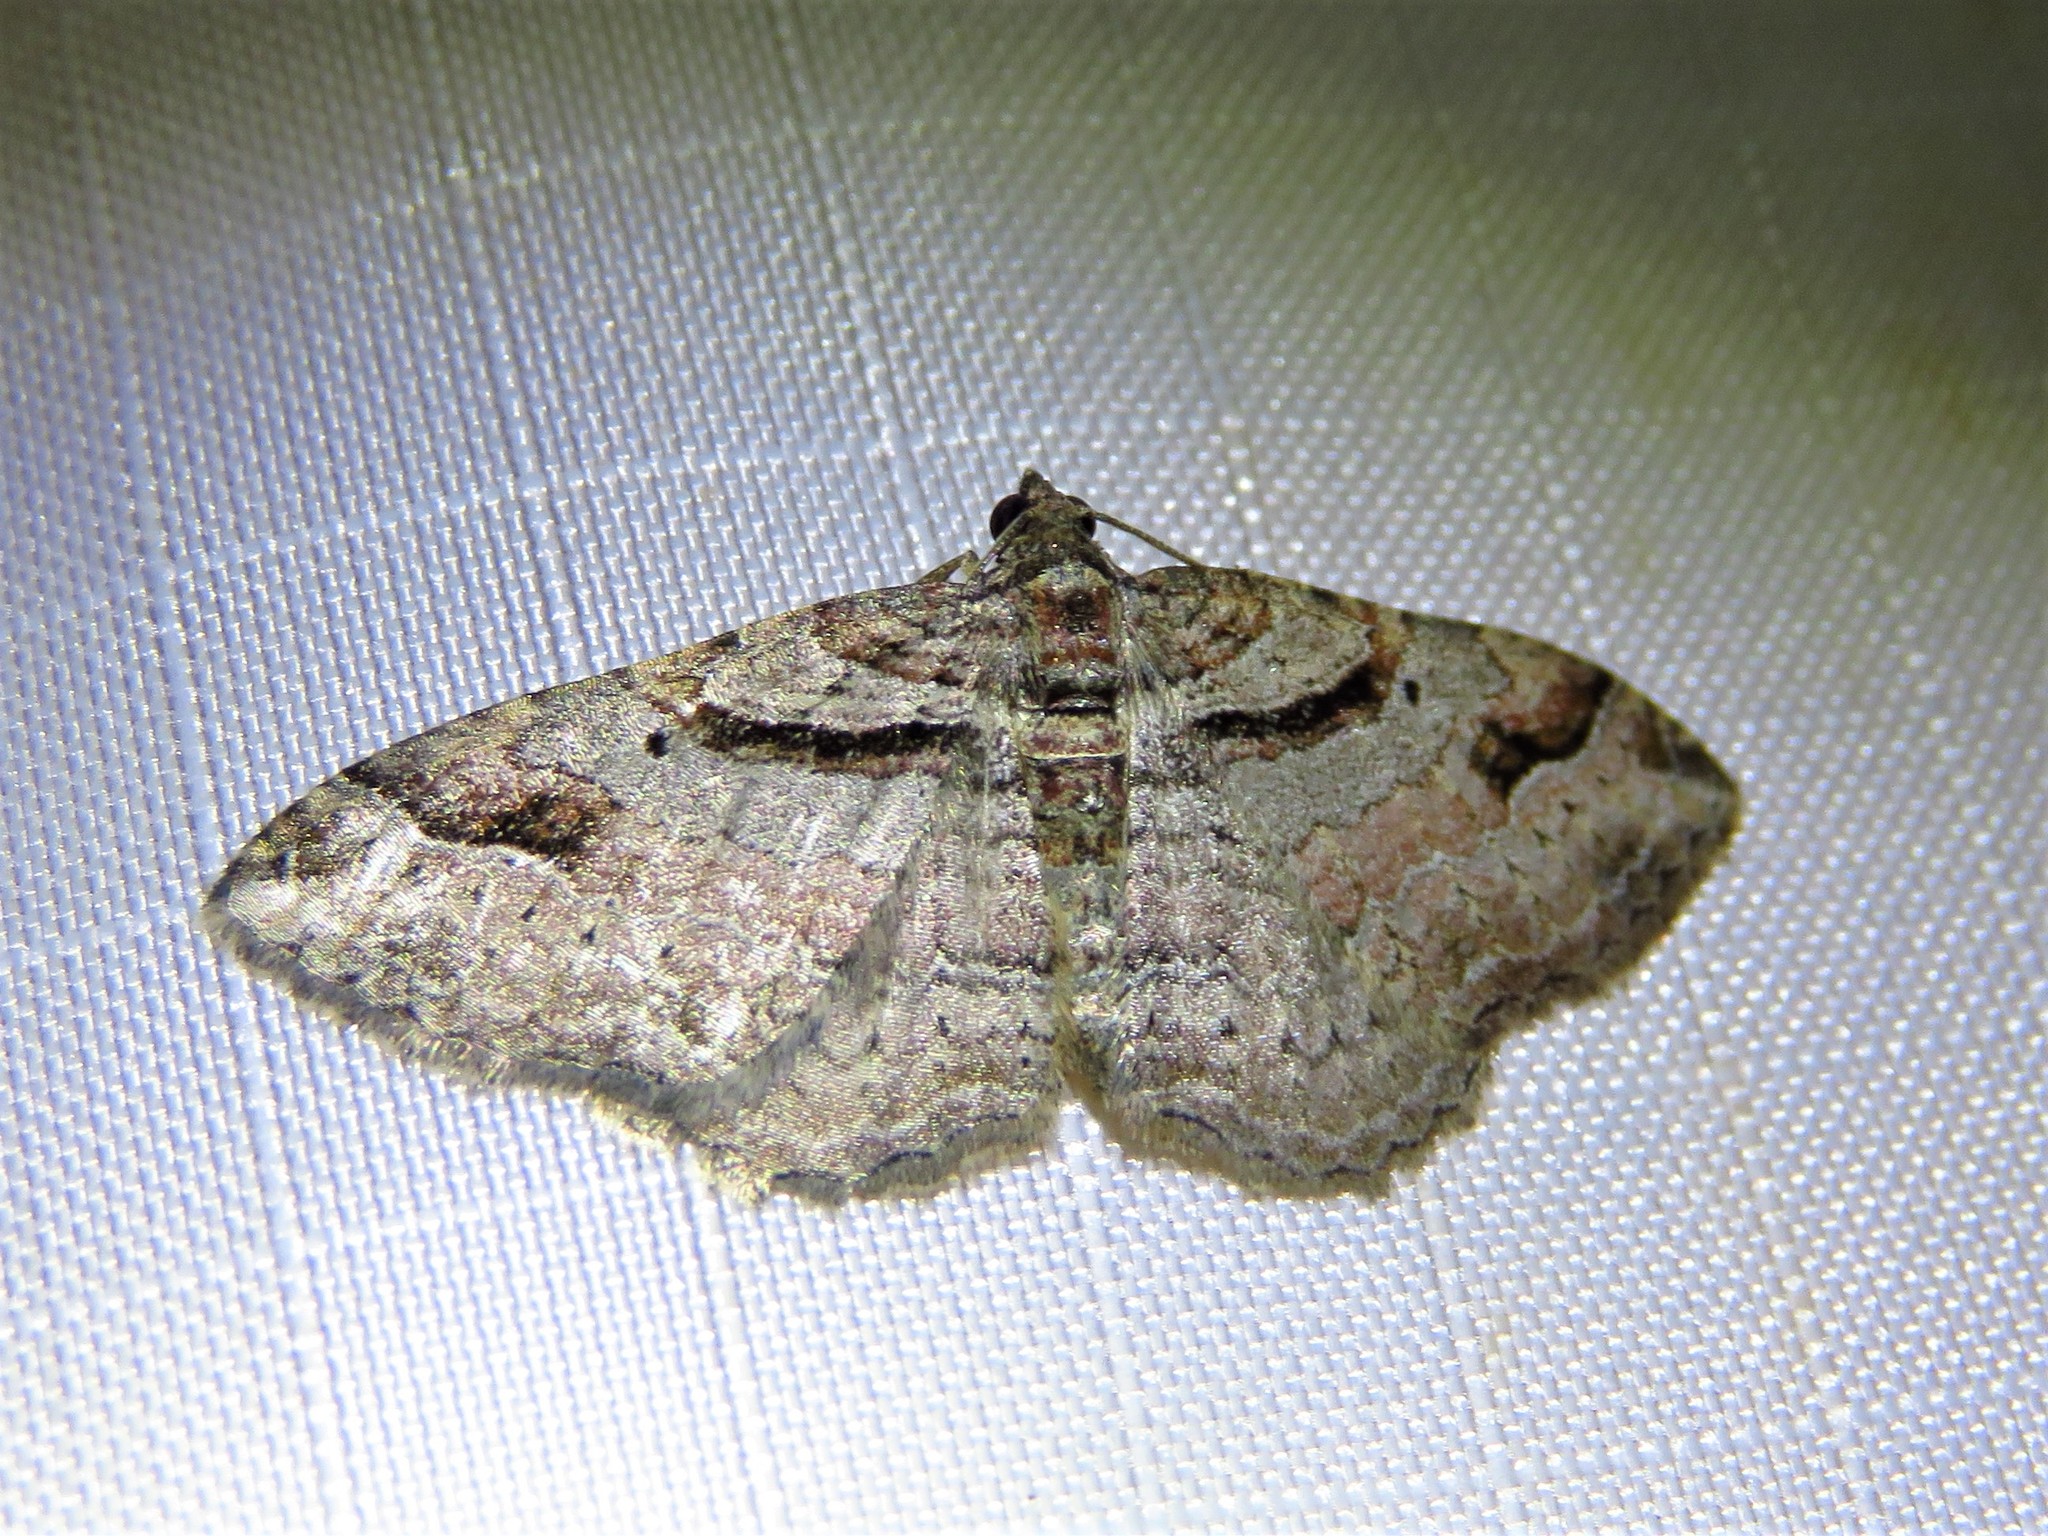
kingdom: Animalia
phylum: Arthropoda
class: Insecta
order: Lepidoptera
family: Geometridae
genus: Costaconvexa
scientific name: Costaconvexa centrostrigaria
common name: Bent-line carpet
